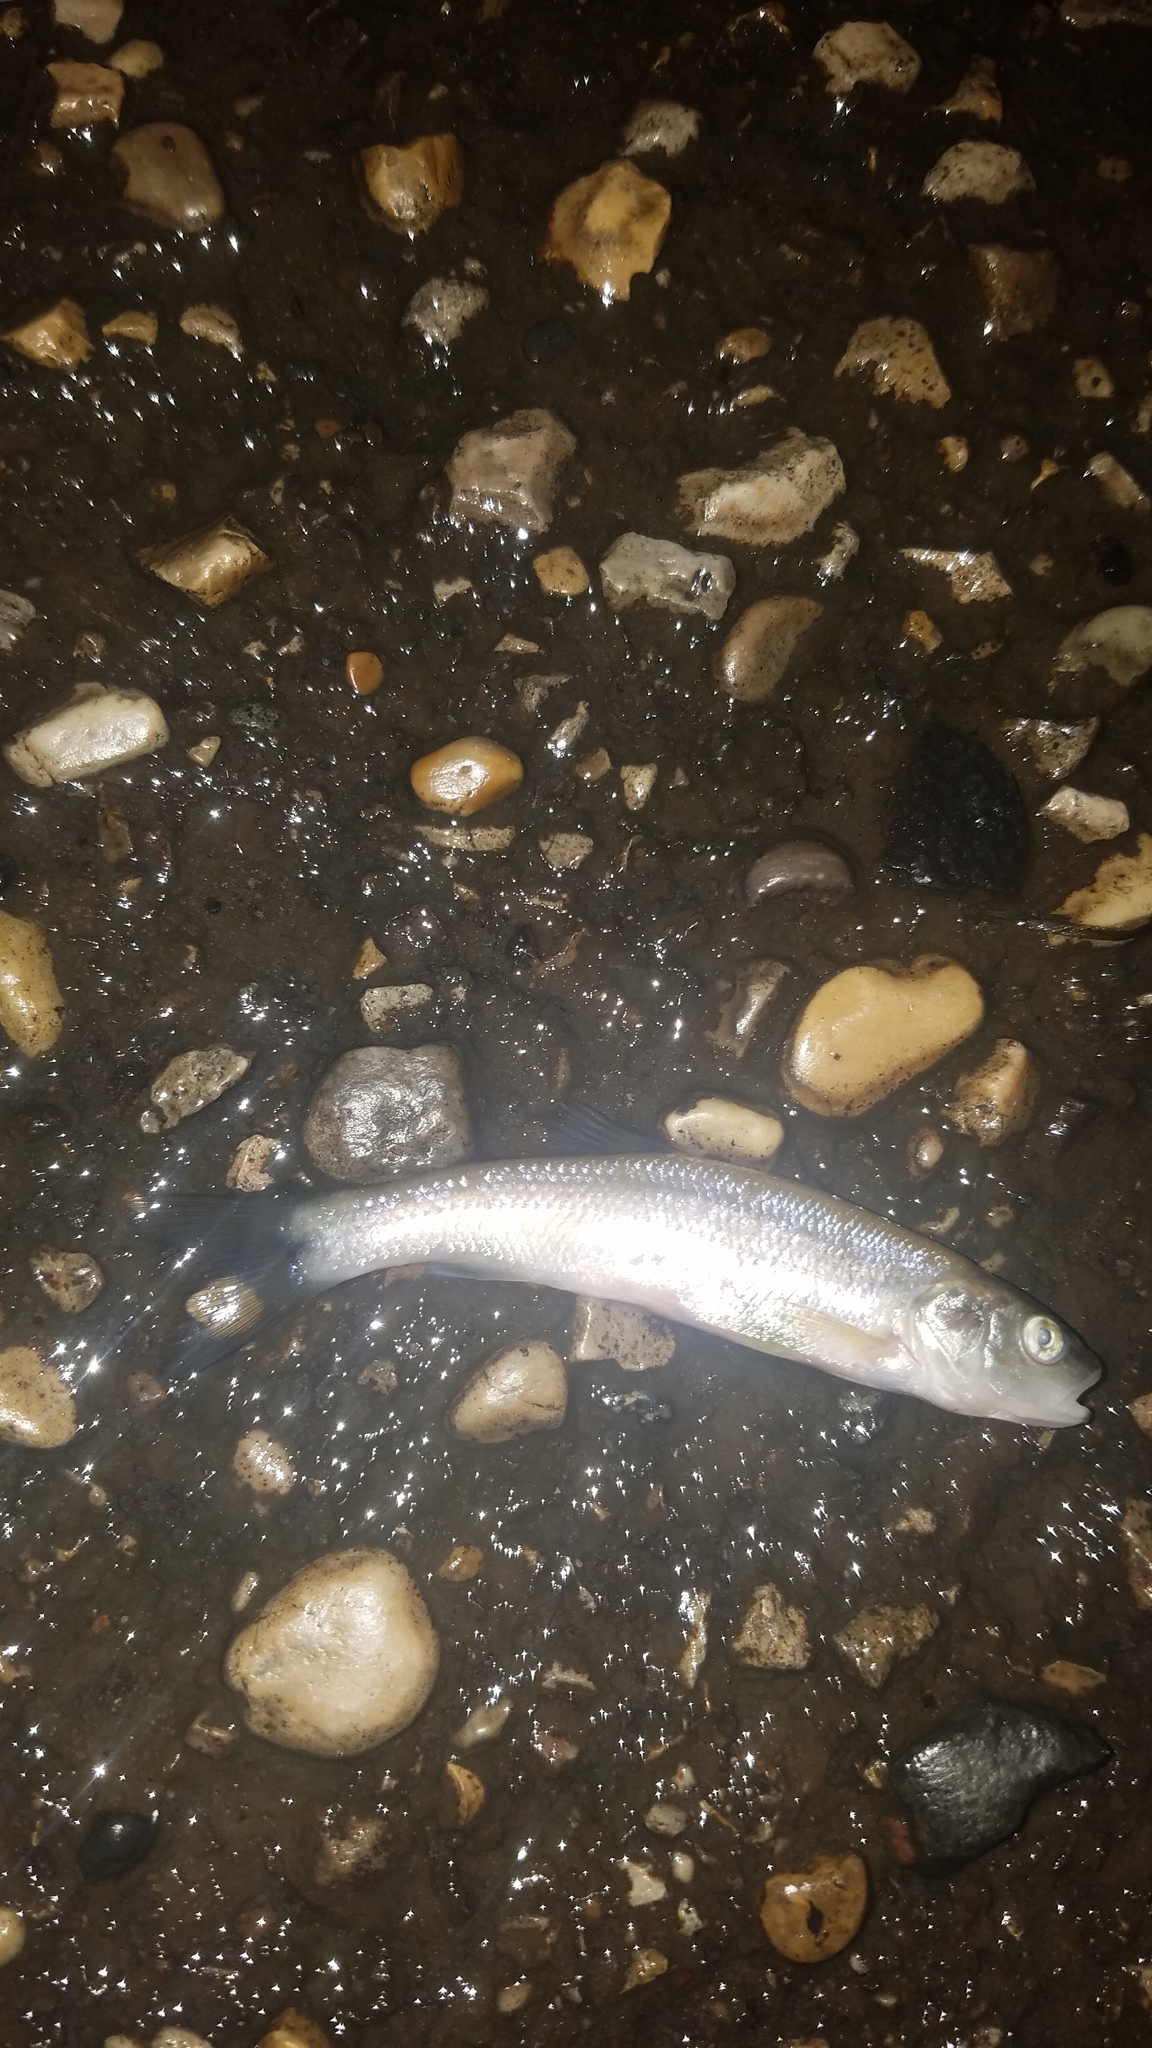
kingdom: Animalia
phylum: Chordata
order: Cypriniformes
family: Cyprinidae
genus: Semotilus
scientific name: Semotilus atromaculatus
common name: Creek chub
